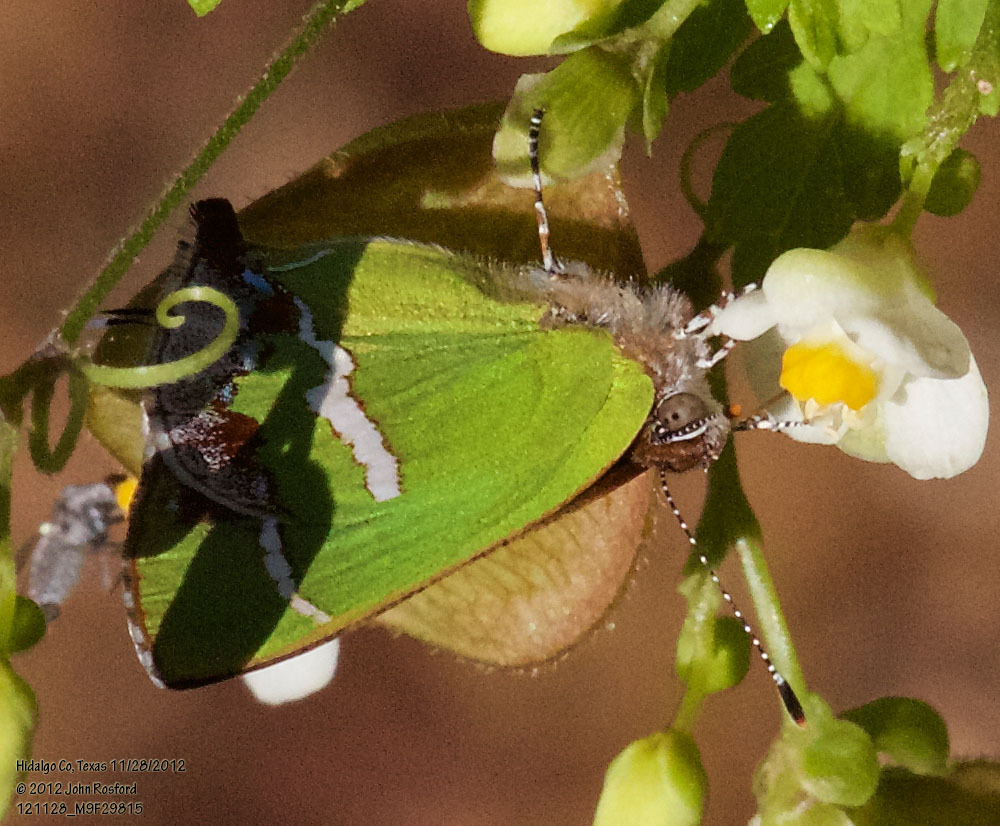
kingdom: Animalia
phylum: Arthropoda
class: Insecta
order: Lepidoptera
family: Lycaenidae
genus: Chlorostrymon
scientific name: Chlorostrymon simaethis
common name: Silver-banded hairstreak
